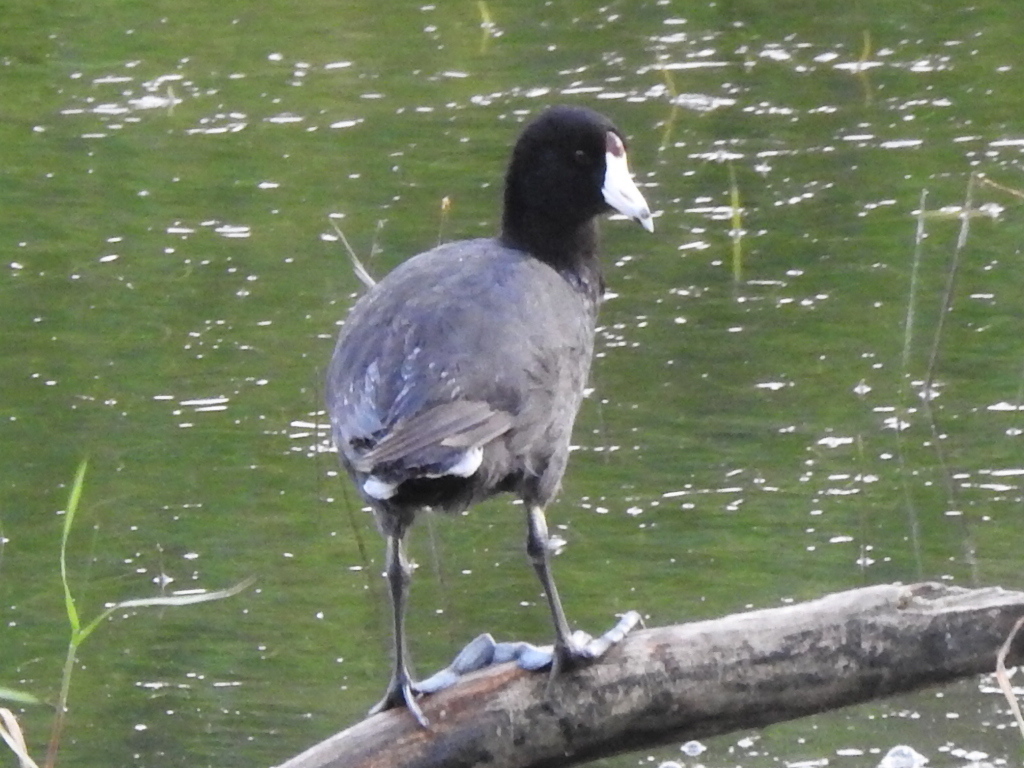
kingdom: Animalia
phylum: Chordata
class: Aves
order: Gruiformes
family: Rallidae
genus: Fulica
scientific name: Fulica americana
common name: American coot
